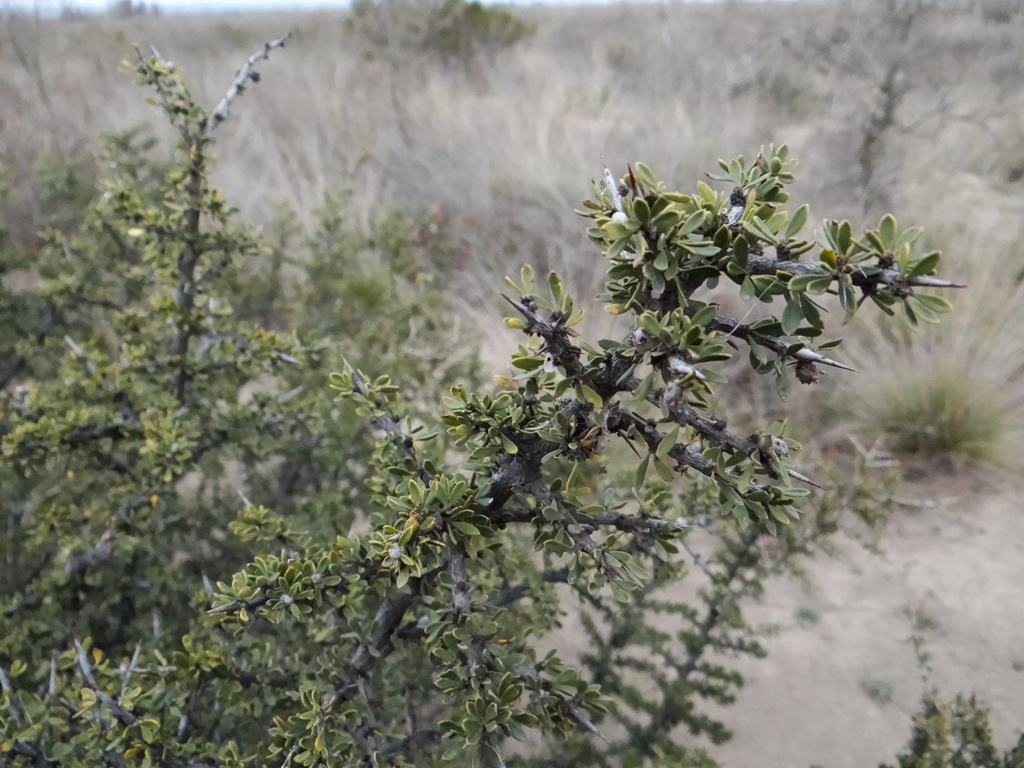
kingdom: Plantae
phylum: Tracheophyta
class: Magnoliopsida
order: Rosales
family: Rhamnaceae
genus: Condalia
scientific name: Condalia microphylla
